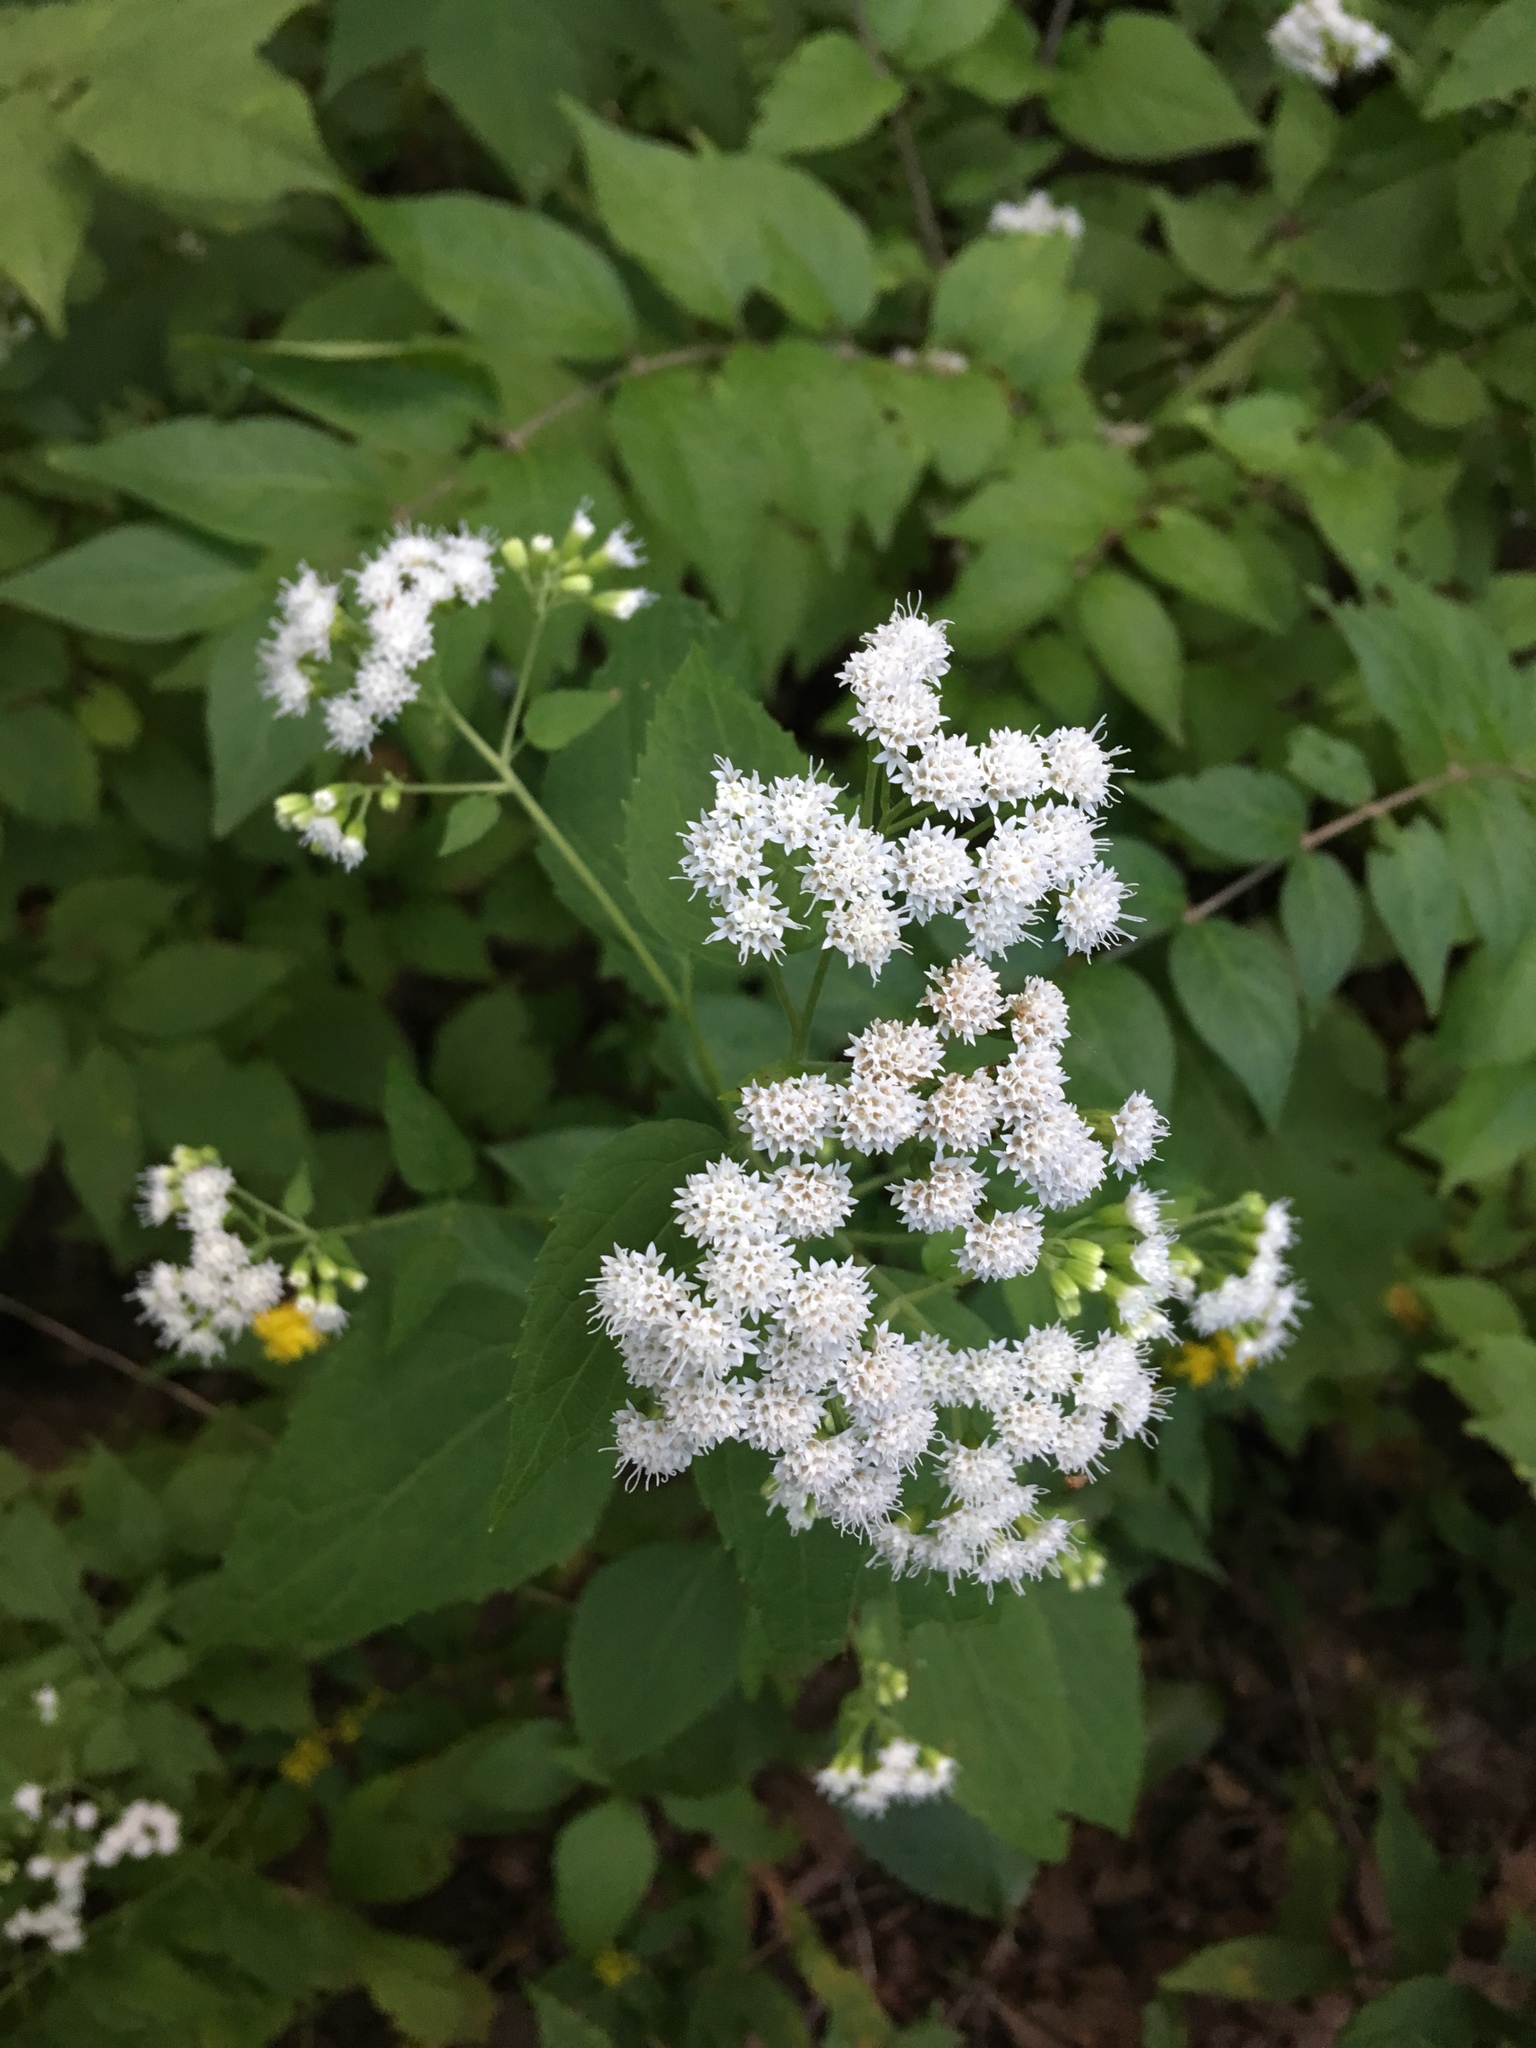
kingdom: Plantae
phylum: Tracheophyta
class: Magnoliopsida
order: Asterales
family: Asteraceae
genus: Ageratina
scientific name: Ageratina altissima
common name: White snakeroot
